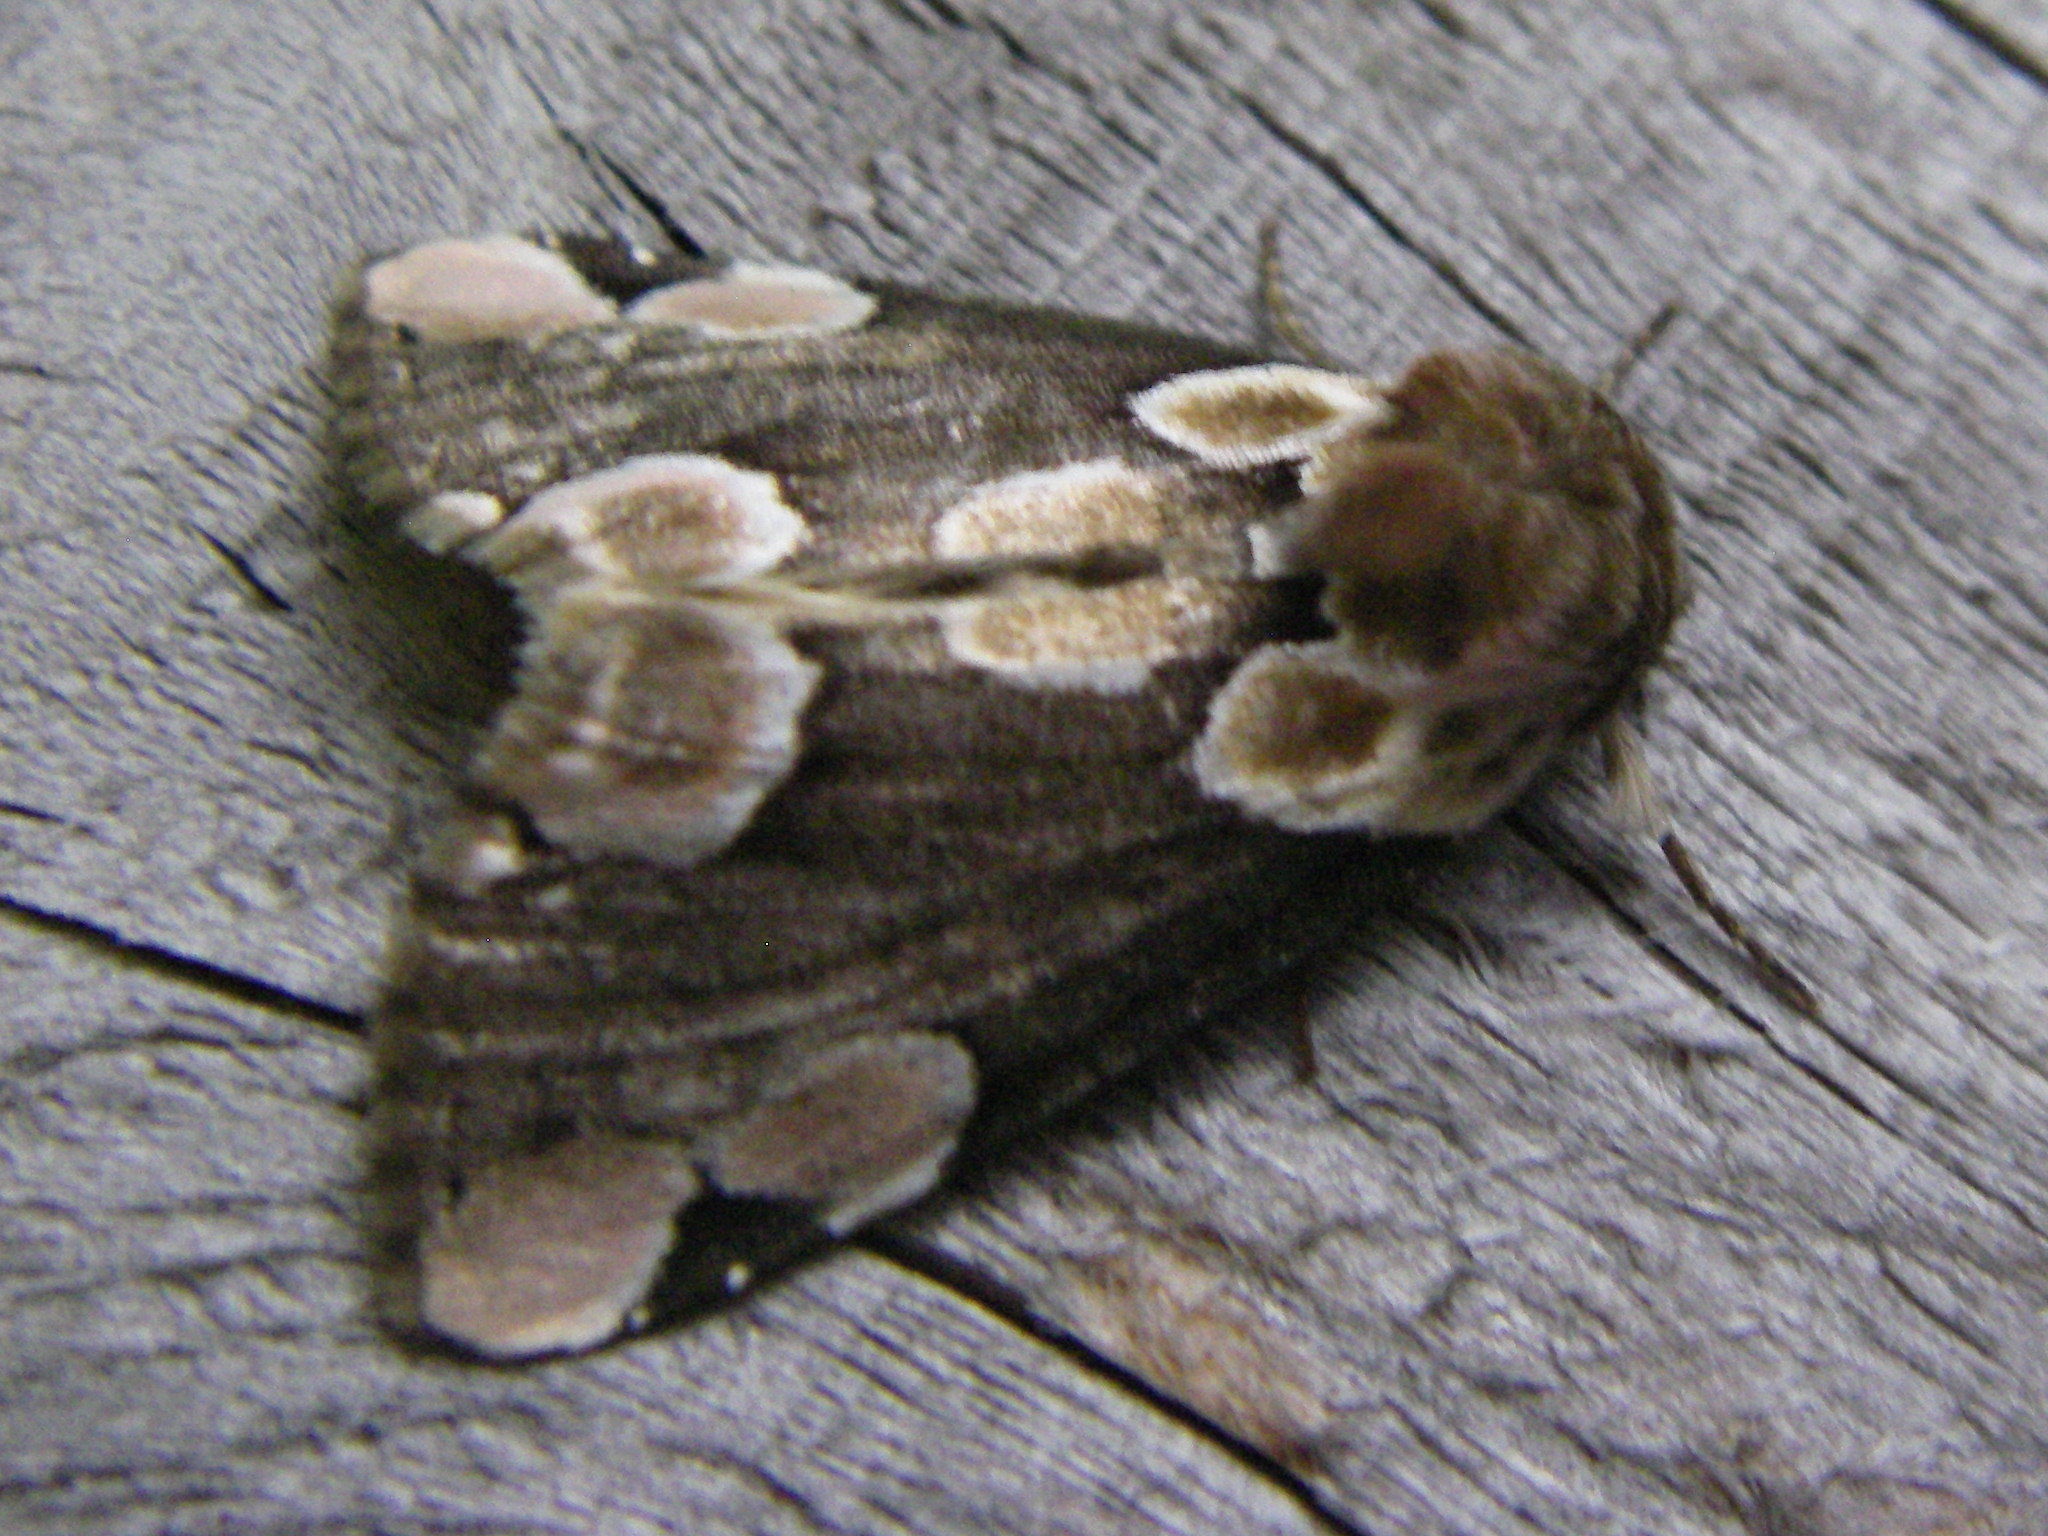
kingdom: Animalia
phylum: Arthropoda
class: Insecta
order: Lepidoptera
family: Drepanidae
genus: Thyatira
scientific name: Thyatira batis
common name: Peach blossom
